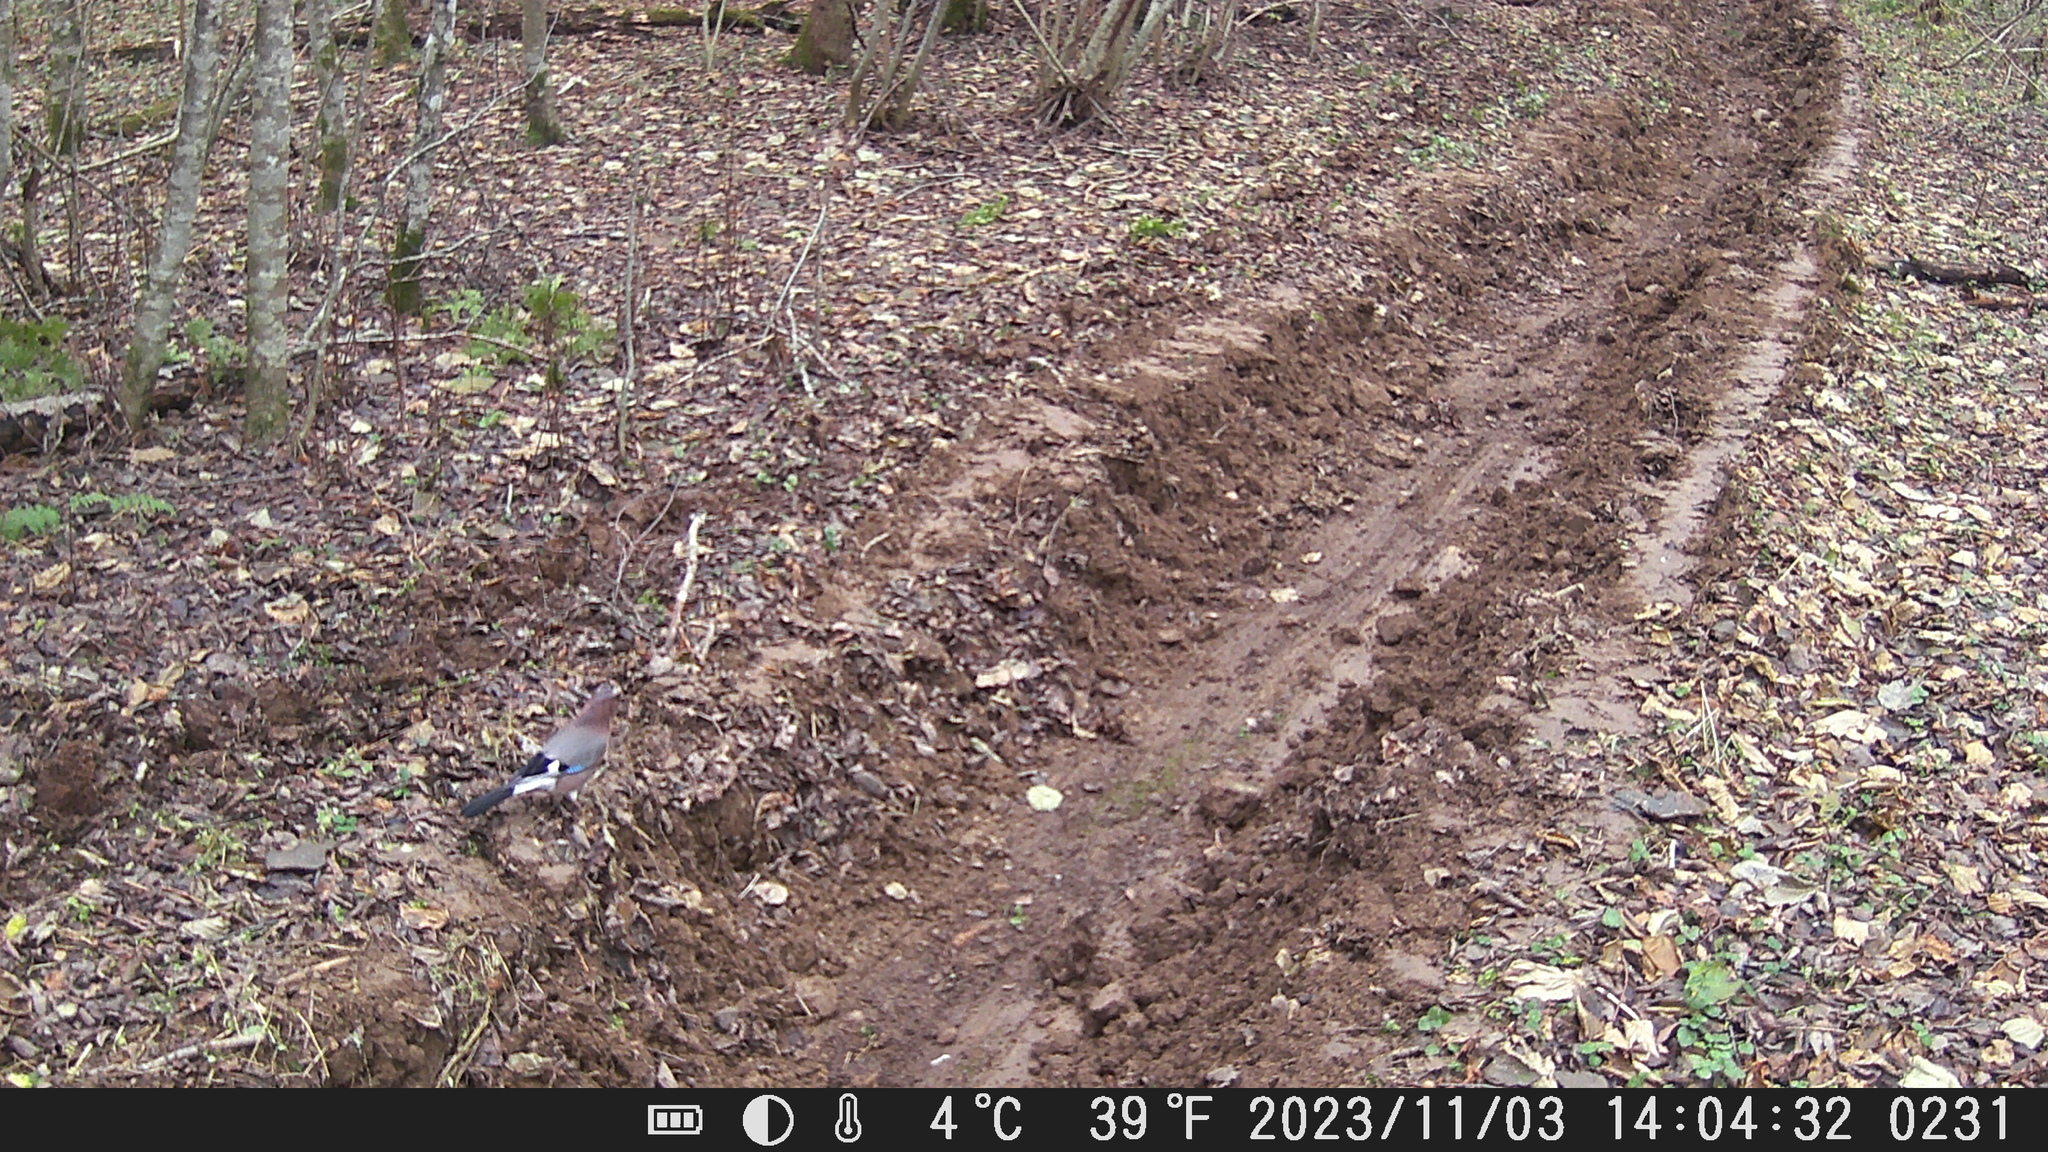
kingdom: Animalia
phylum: Chordata
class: Aves
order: Passeriformes
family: Corvidae
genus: Garrulus
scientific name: Garrulus glandarius
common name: Eurasian jay
